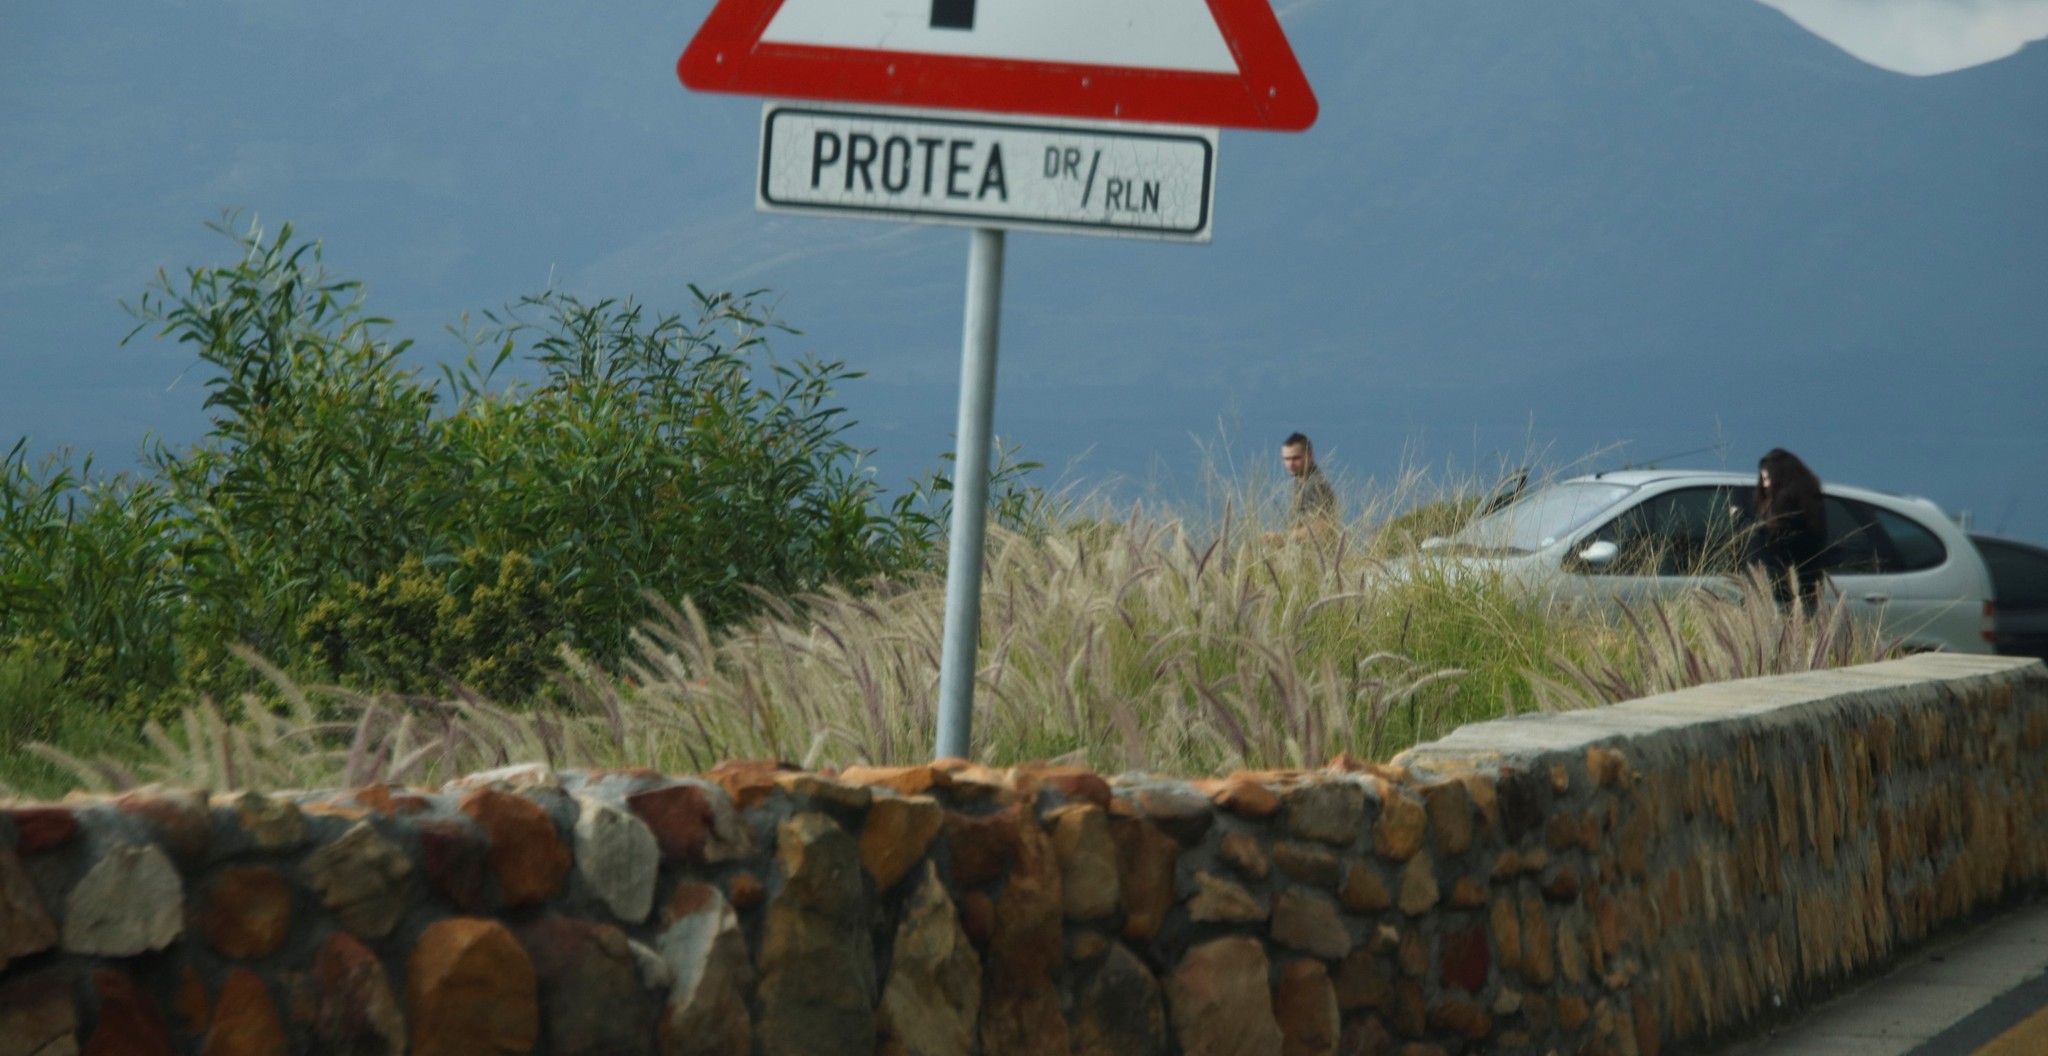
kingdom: Plantae
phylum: Tracheophyta
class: Magnoliopsida
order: Fabales
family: Fabaceae
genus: Acacia
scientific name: Acacia saligna
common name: Orange wattle
